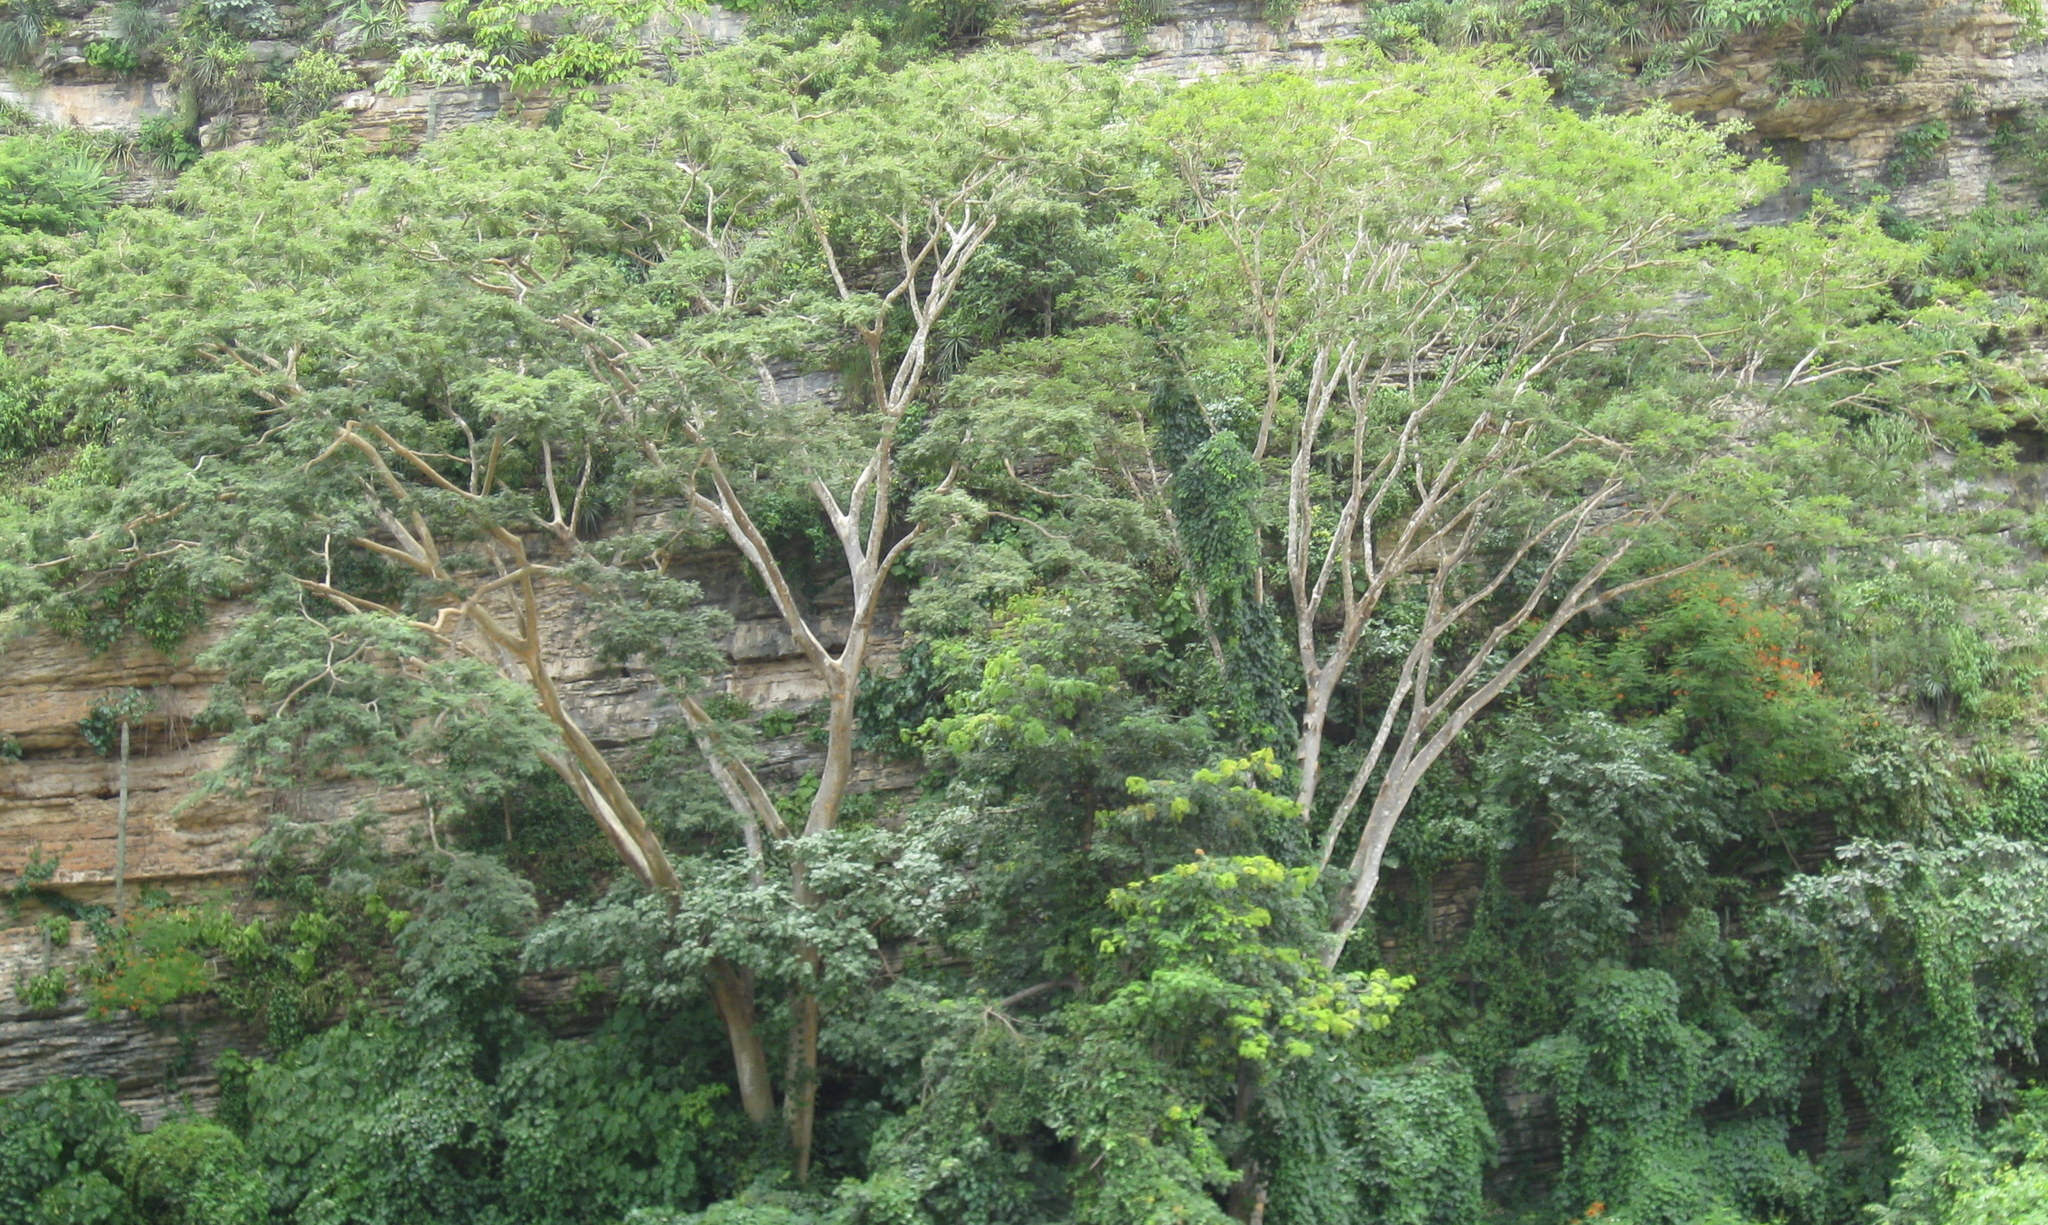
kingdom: Plantae
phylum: Tracheophyta
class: Magnoliopsida
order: Fabales
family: Fabaceae
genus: Enterolobium
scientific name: Enterolobium cyclocarpum
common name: Ear tree
